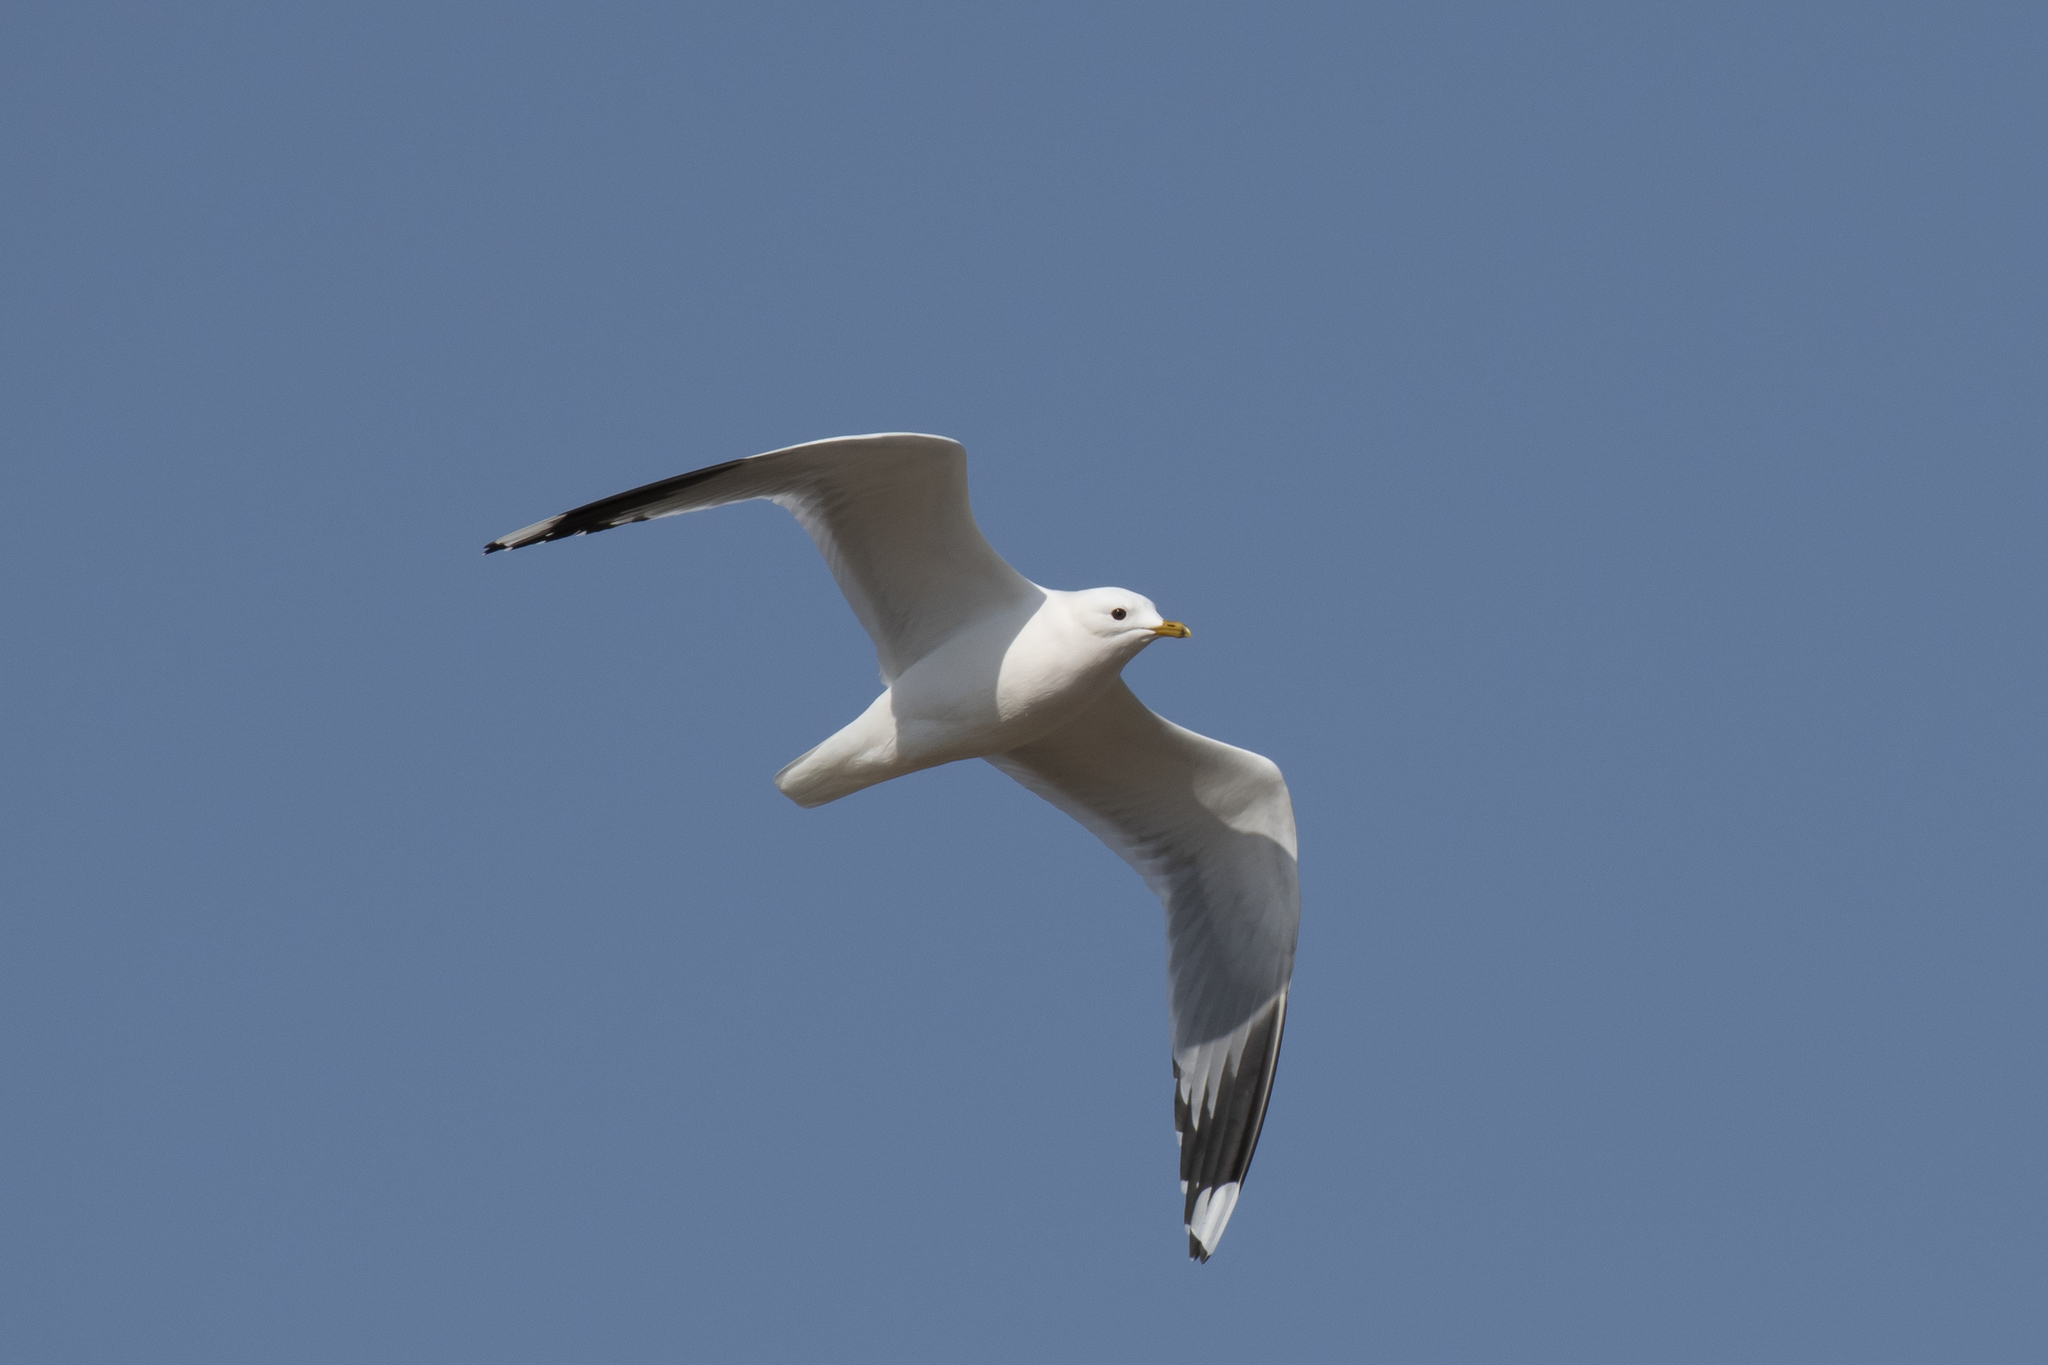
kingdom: Animalia
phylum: Chordata
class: Aves
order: Charadriiformes
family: Laridae
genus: Larus
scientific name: Larus canus
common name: Mew gull
